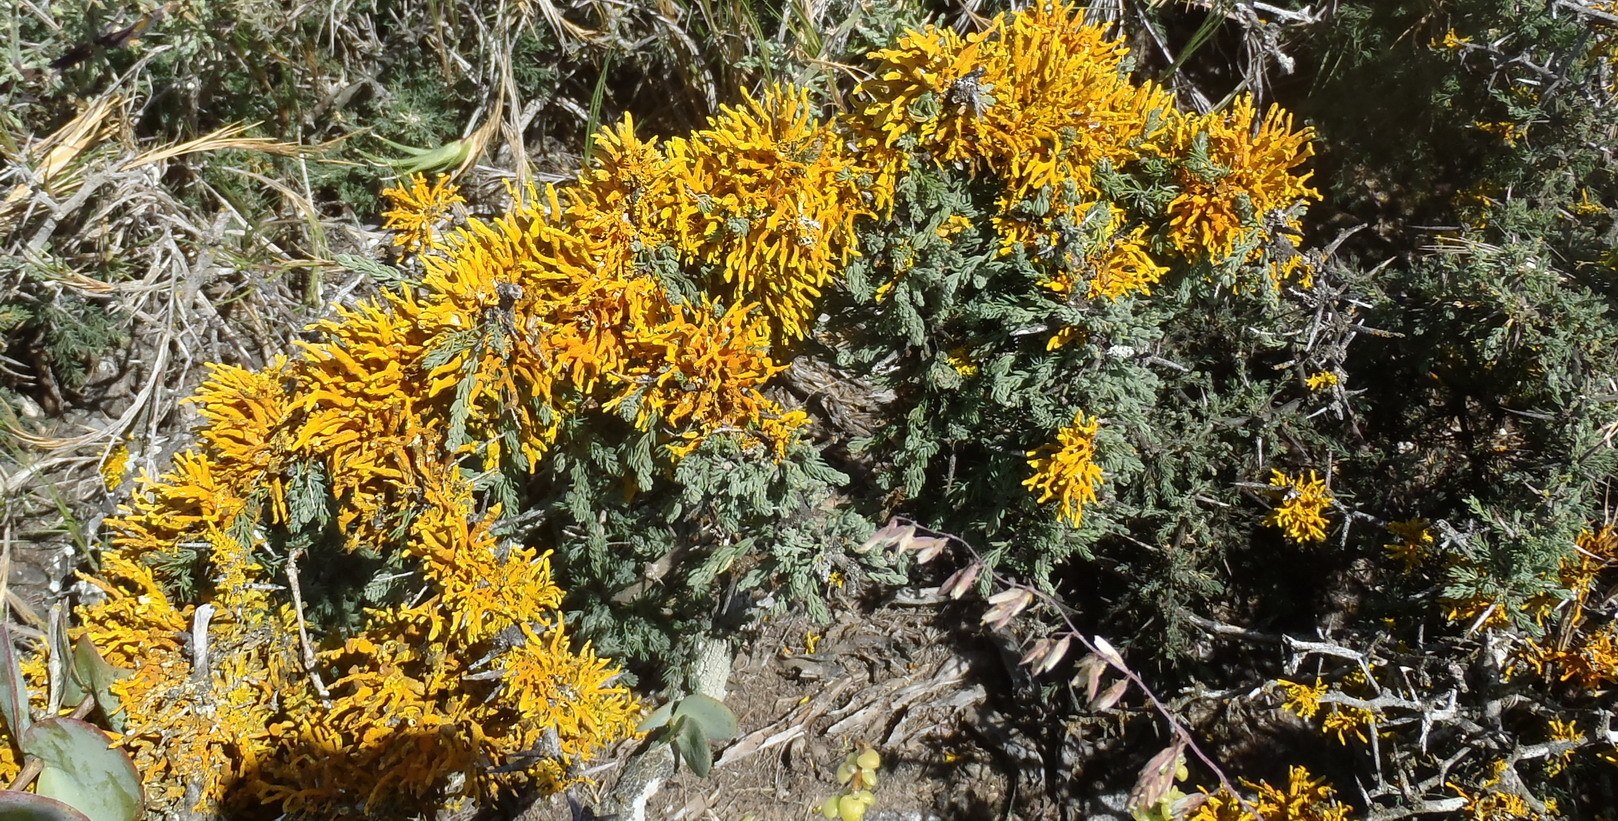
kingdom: Fungi
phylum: Ascomycota
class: Lecanoromycetes
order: Teloschistales
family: Teloschistaceae
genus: Dufourea
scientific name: Dufourea flammea
